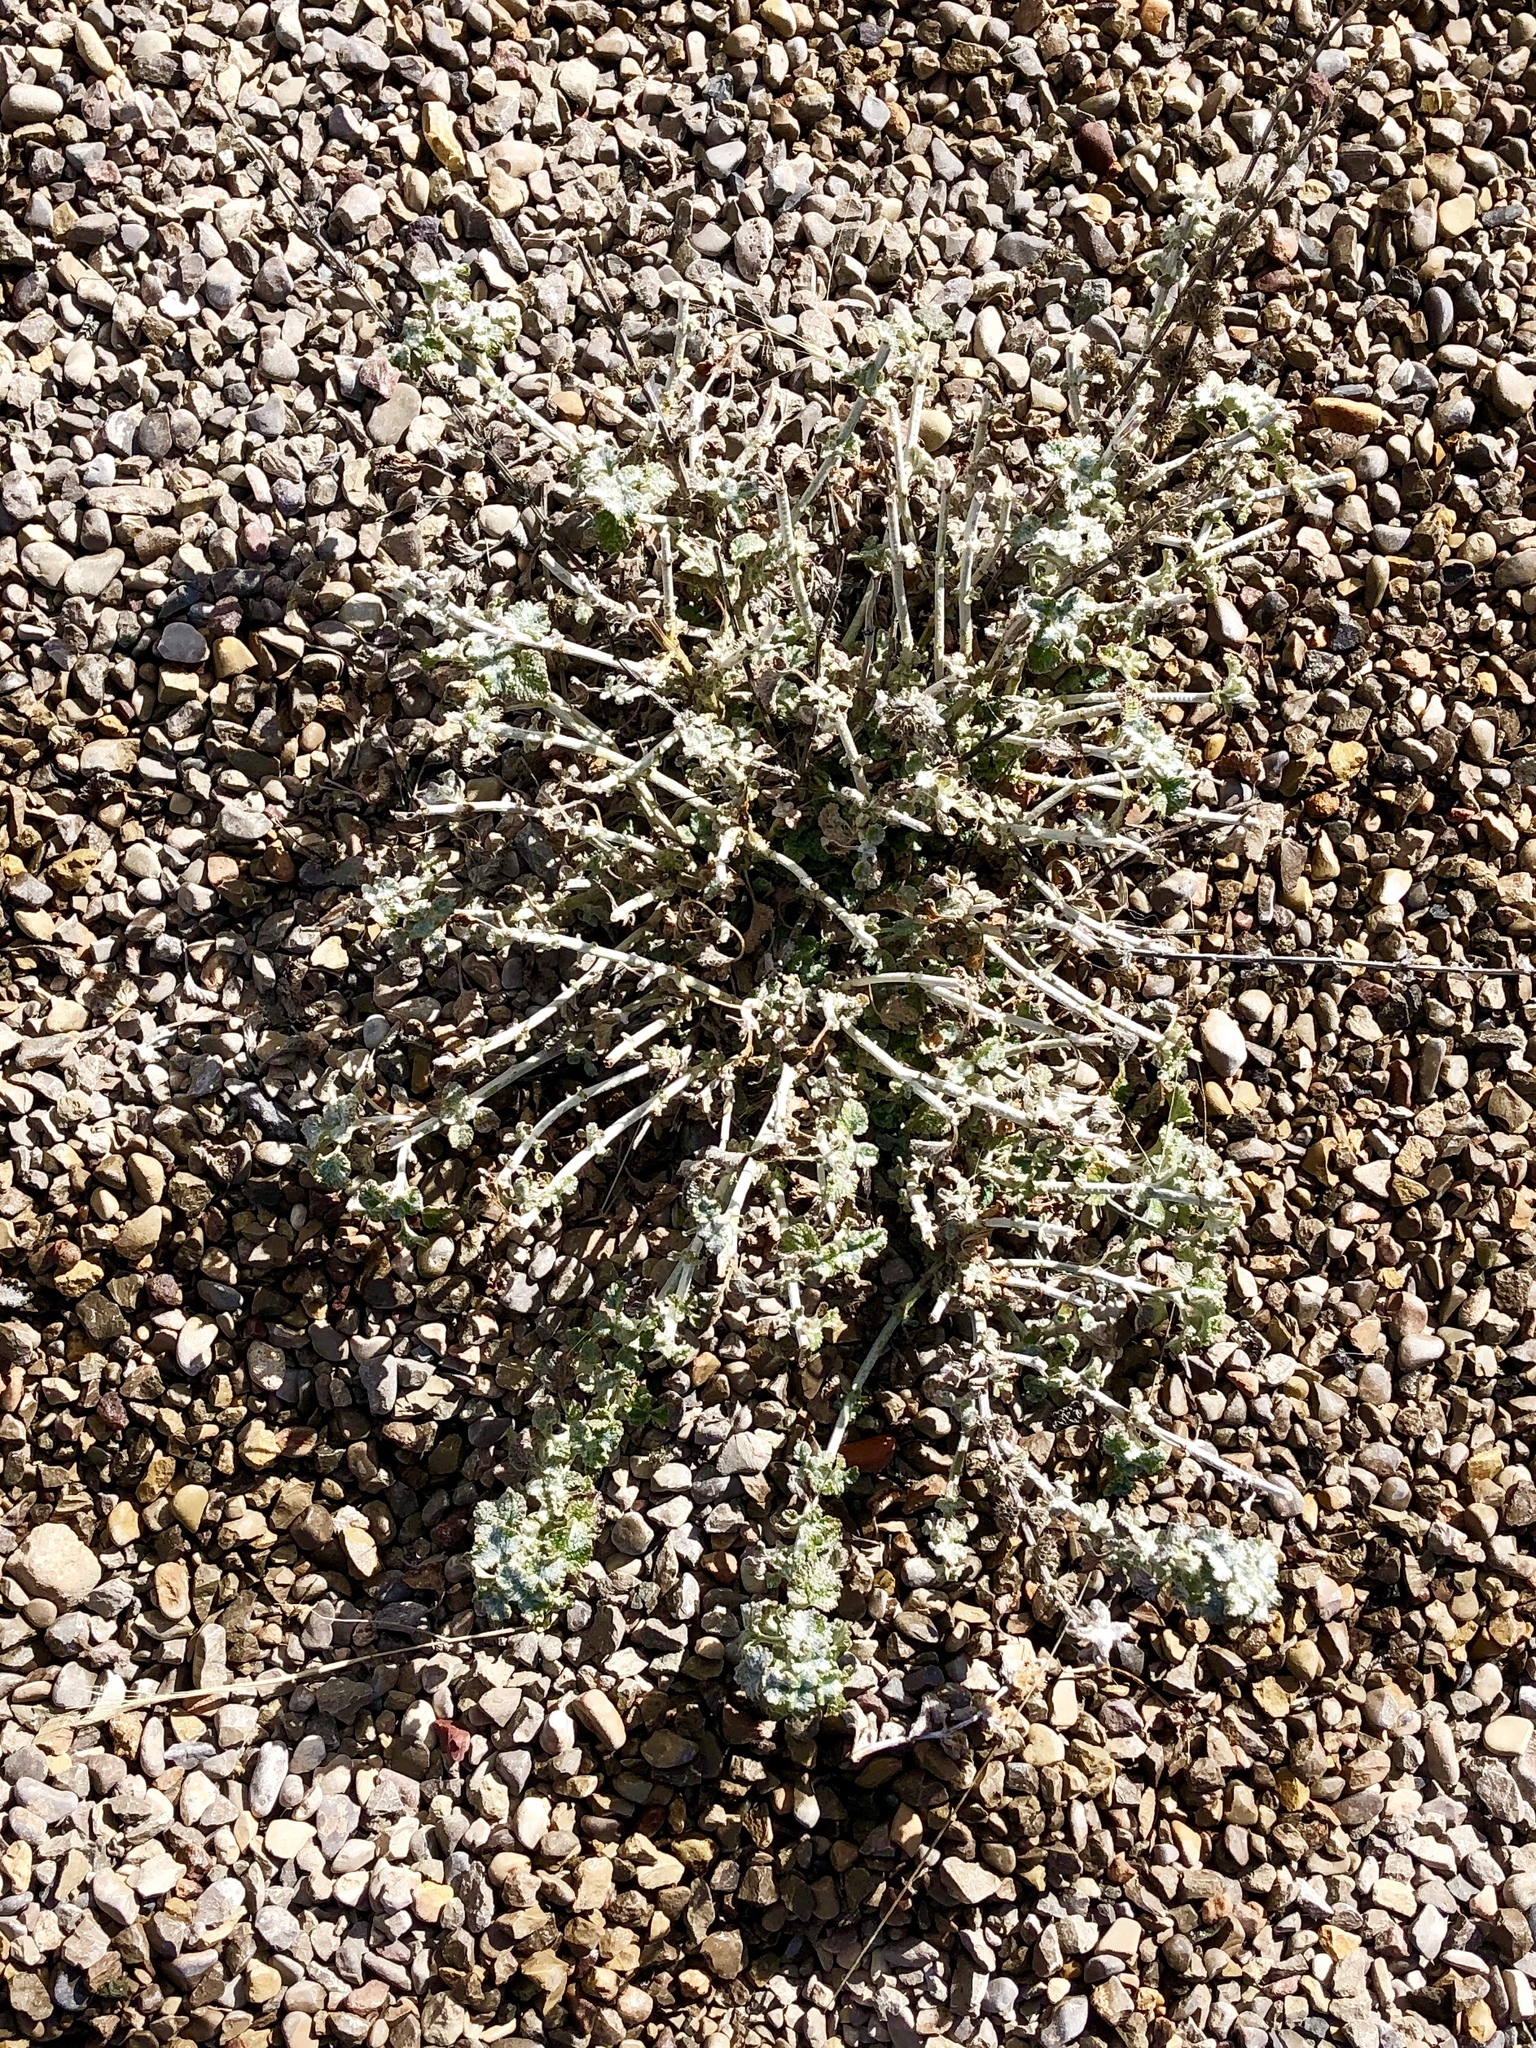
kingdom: Plantae
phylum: Tracheophyta
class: Magnoliopsida
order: Lamiales
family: Lamiaceae
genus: Marrubium
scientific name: Marrubium vulgare
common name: Horehound
